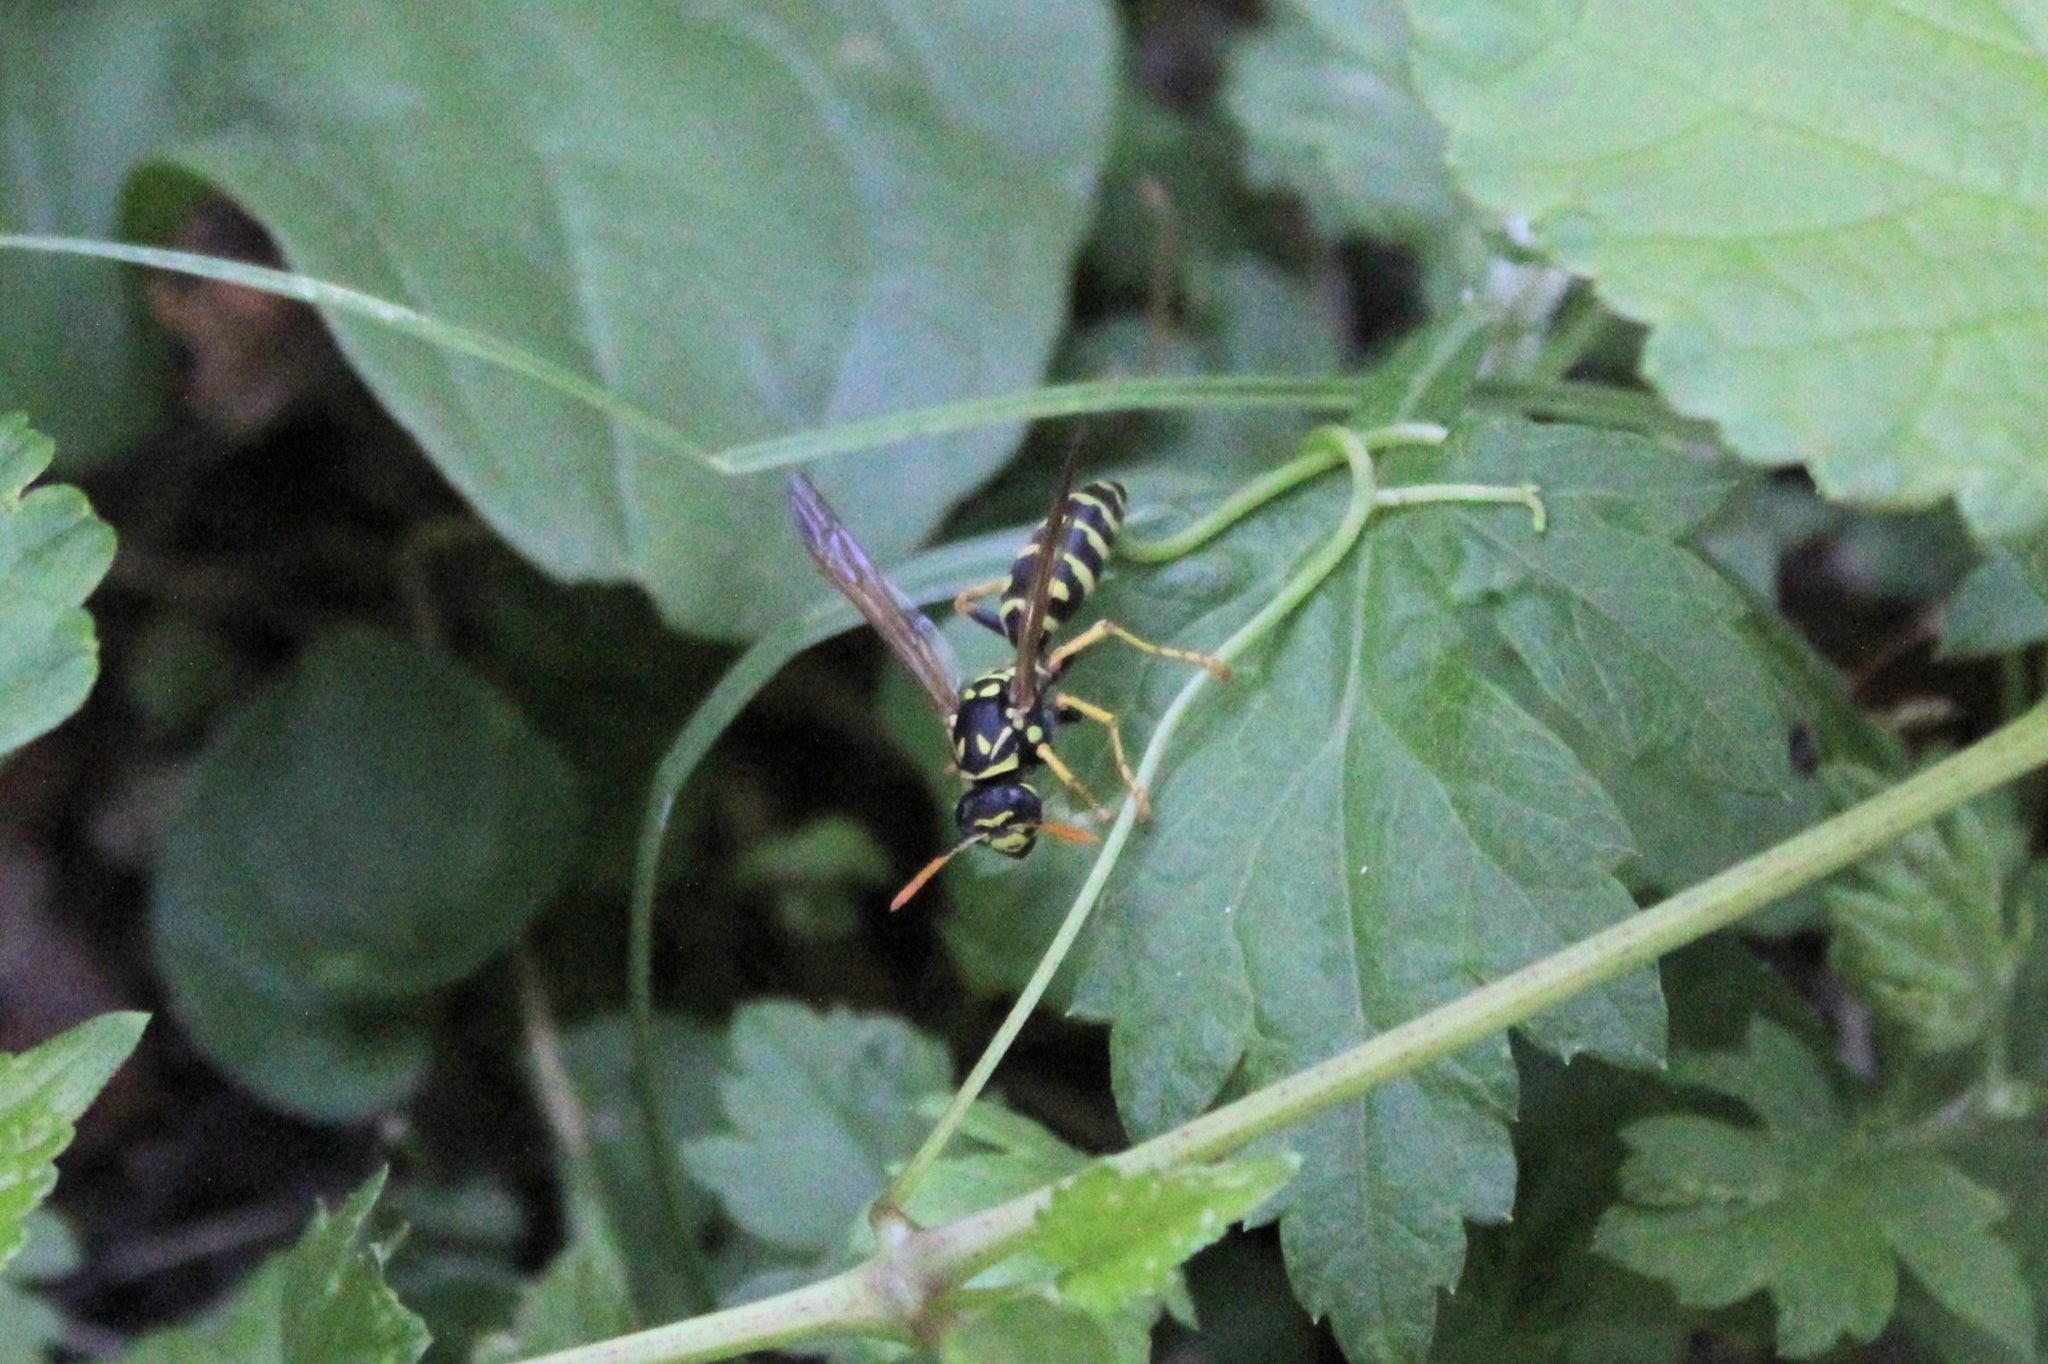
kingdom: Animalia
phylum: Arthropoda
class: Insecta
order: Hymenoptera
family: Eumenidae
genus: Polistes
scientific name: Polistes dominula
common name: Paper wasp
